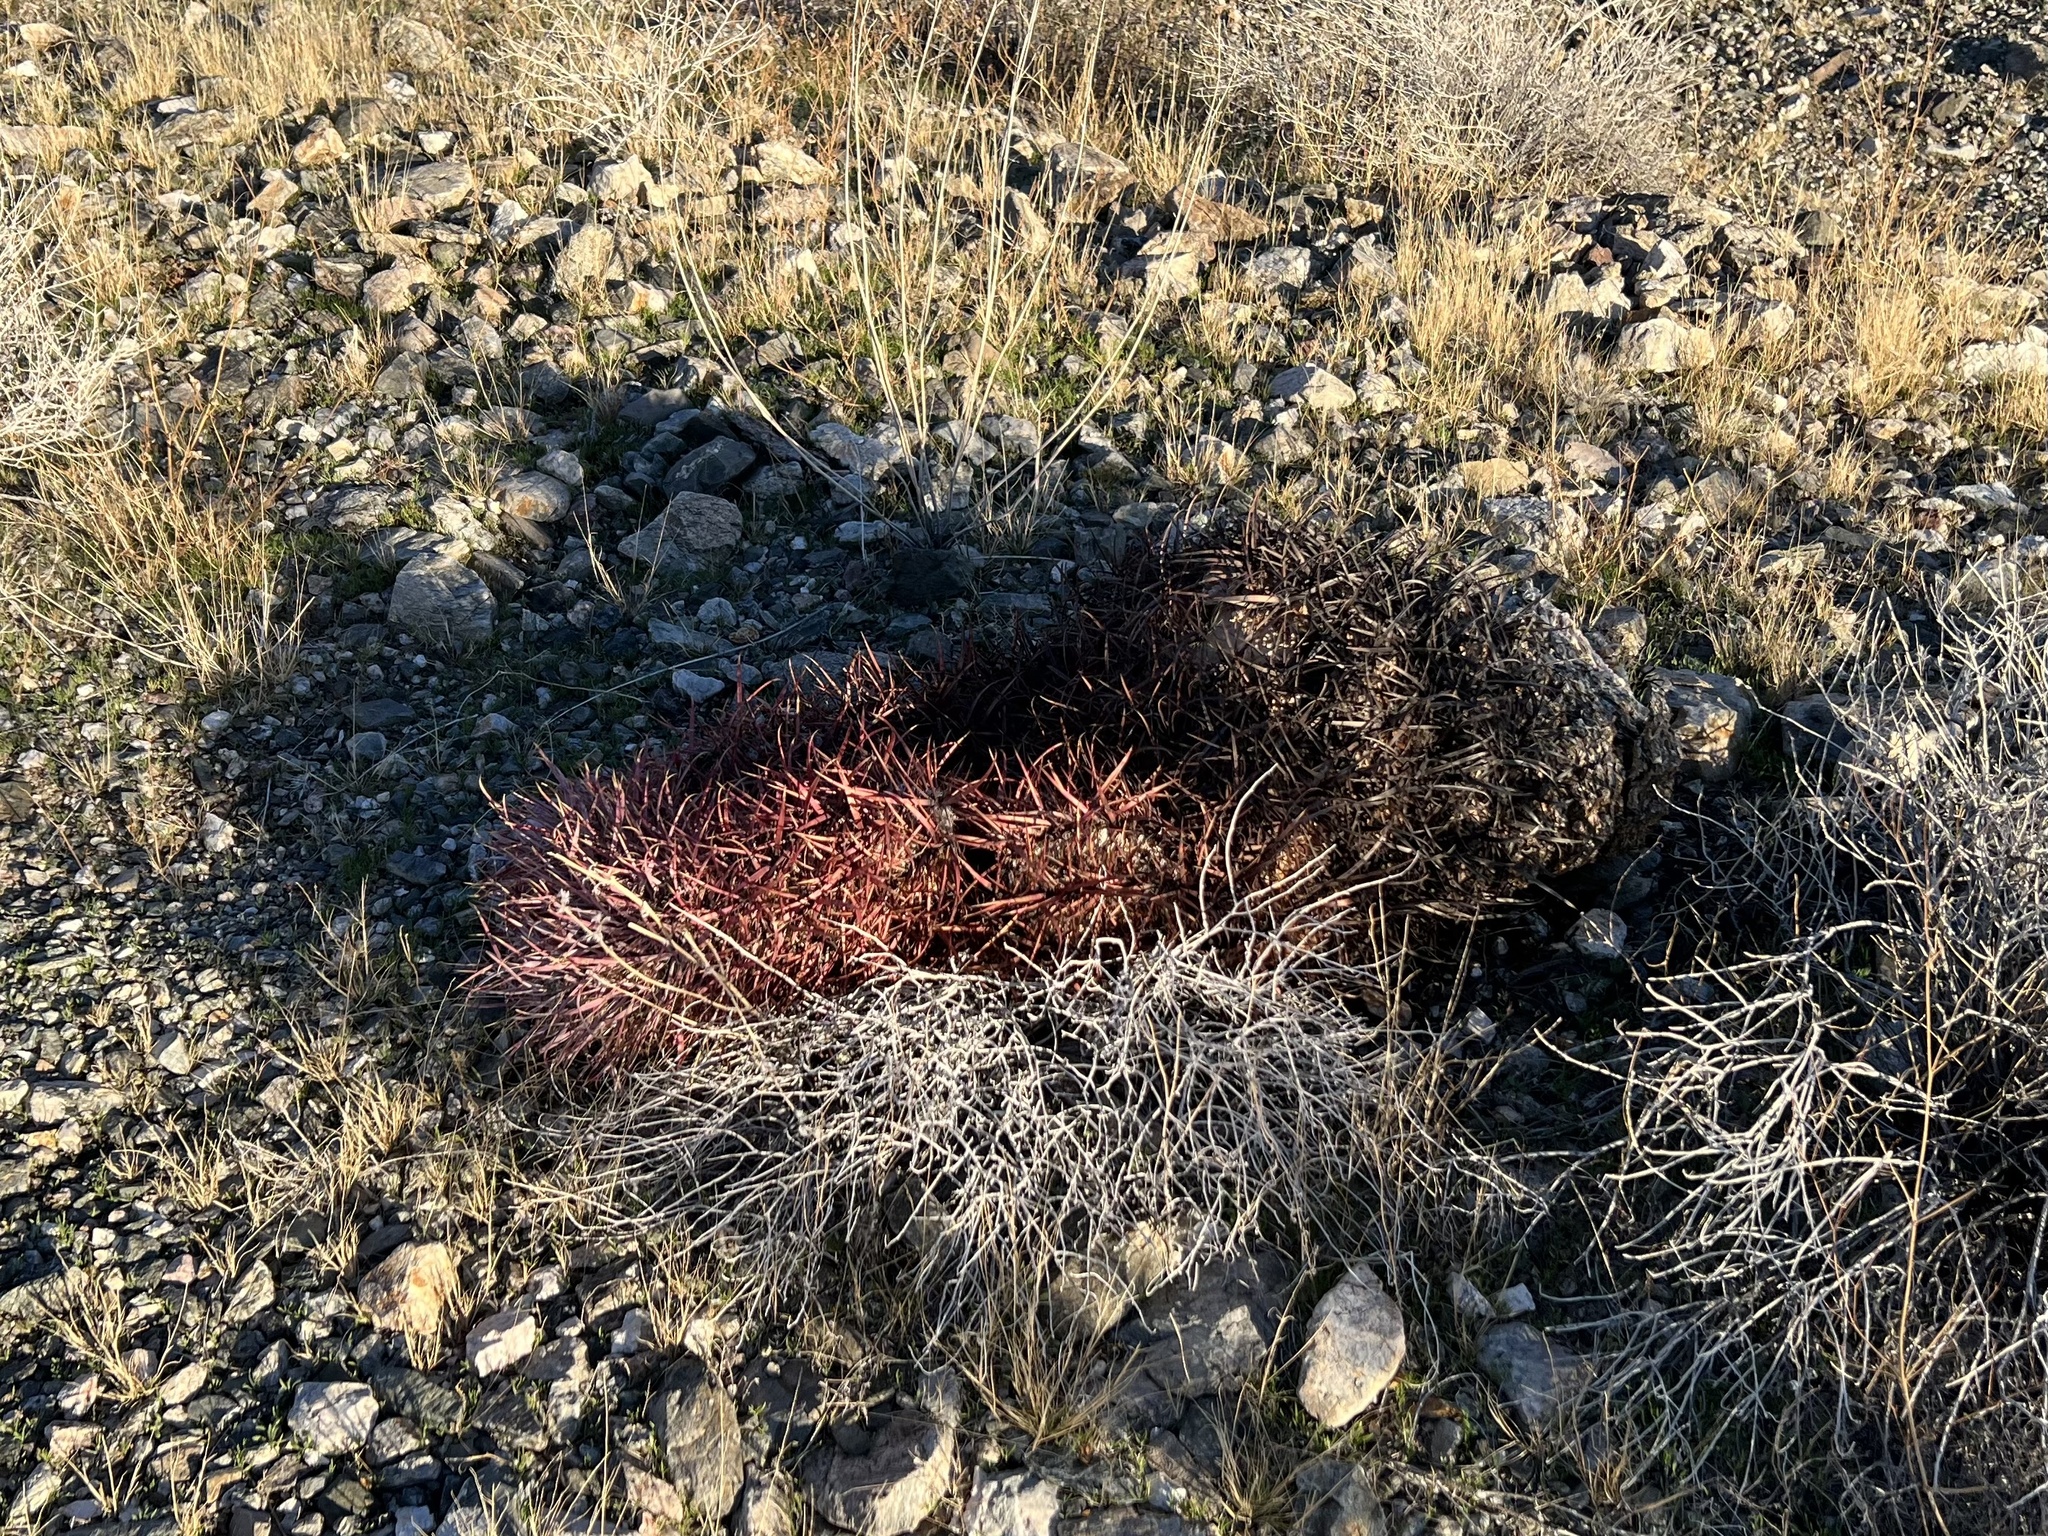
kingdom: Plantae
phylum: Tracheophyta
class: Magnoliopsida
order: Caryophyllales
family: Cactaceae
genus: Ferocactus
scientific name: Ferocactus cylindraceus
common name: California barrel cactus
